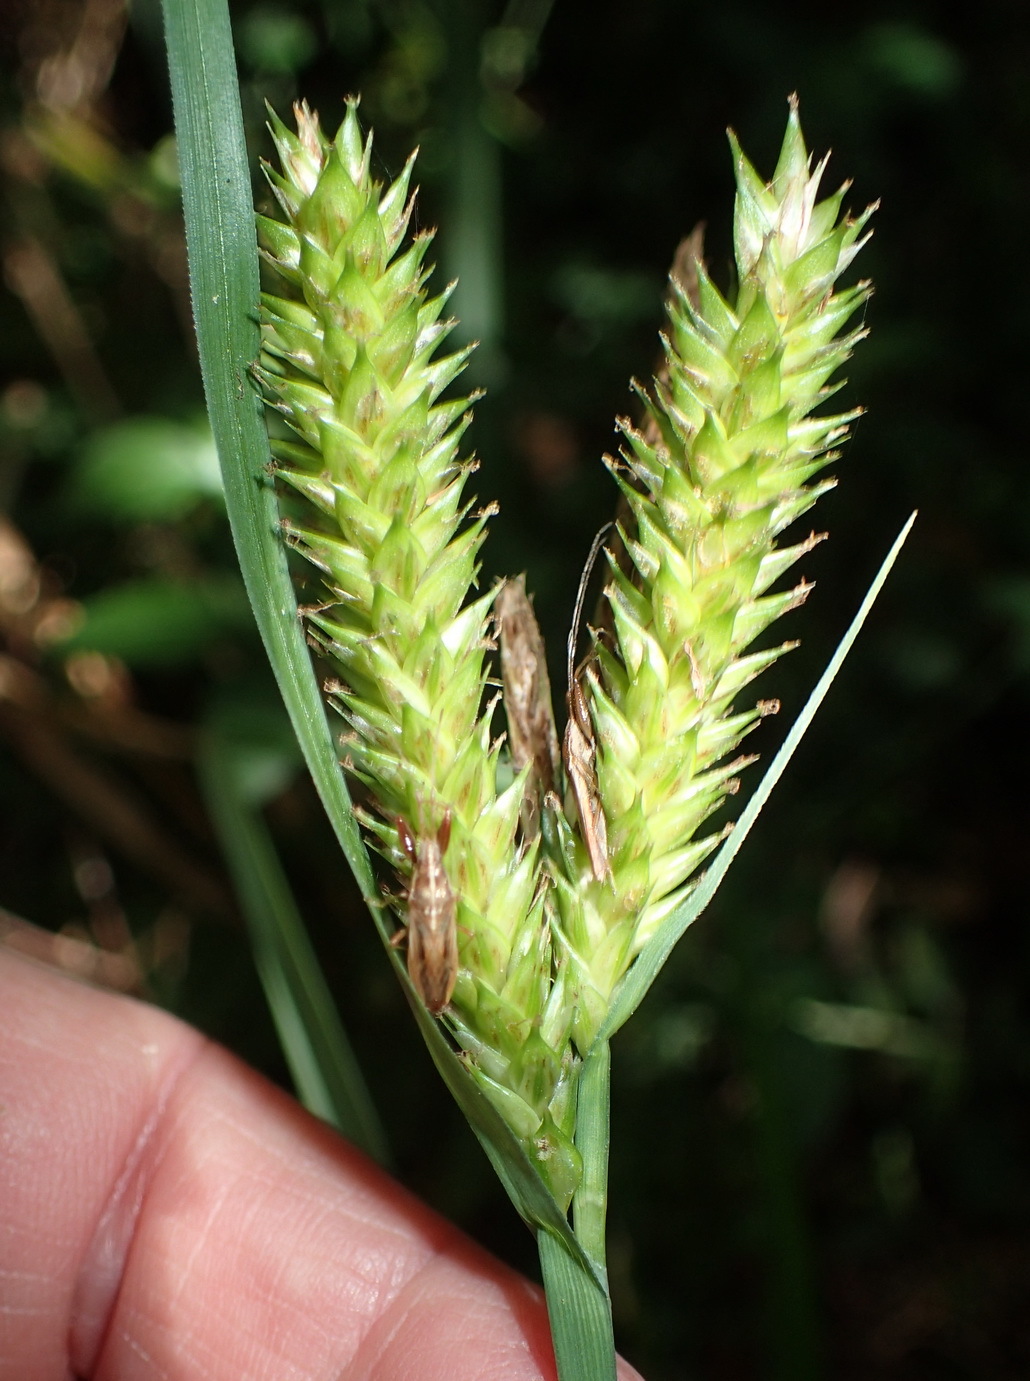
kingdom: Plantae
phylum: Tracheophyta
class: Liliopsida
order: Poales
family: Cyperaceae
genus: Carex
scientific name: Carex aethiopica
